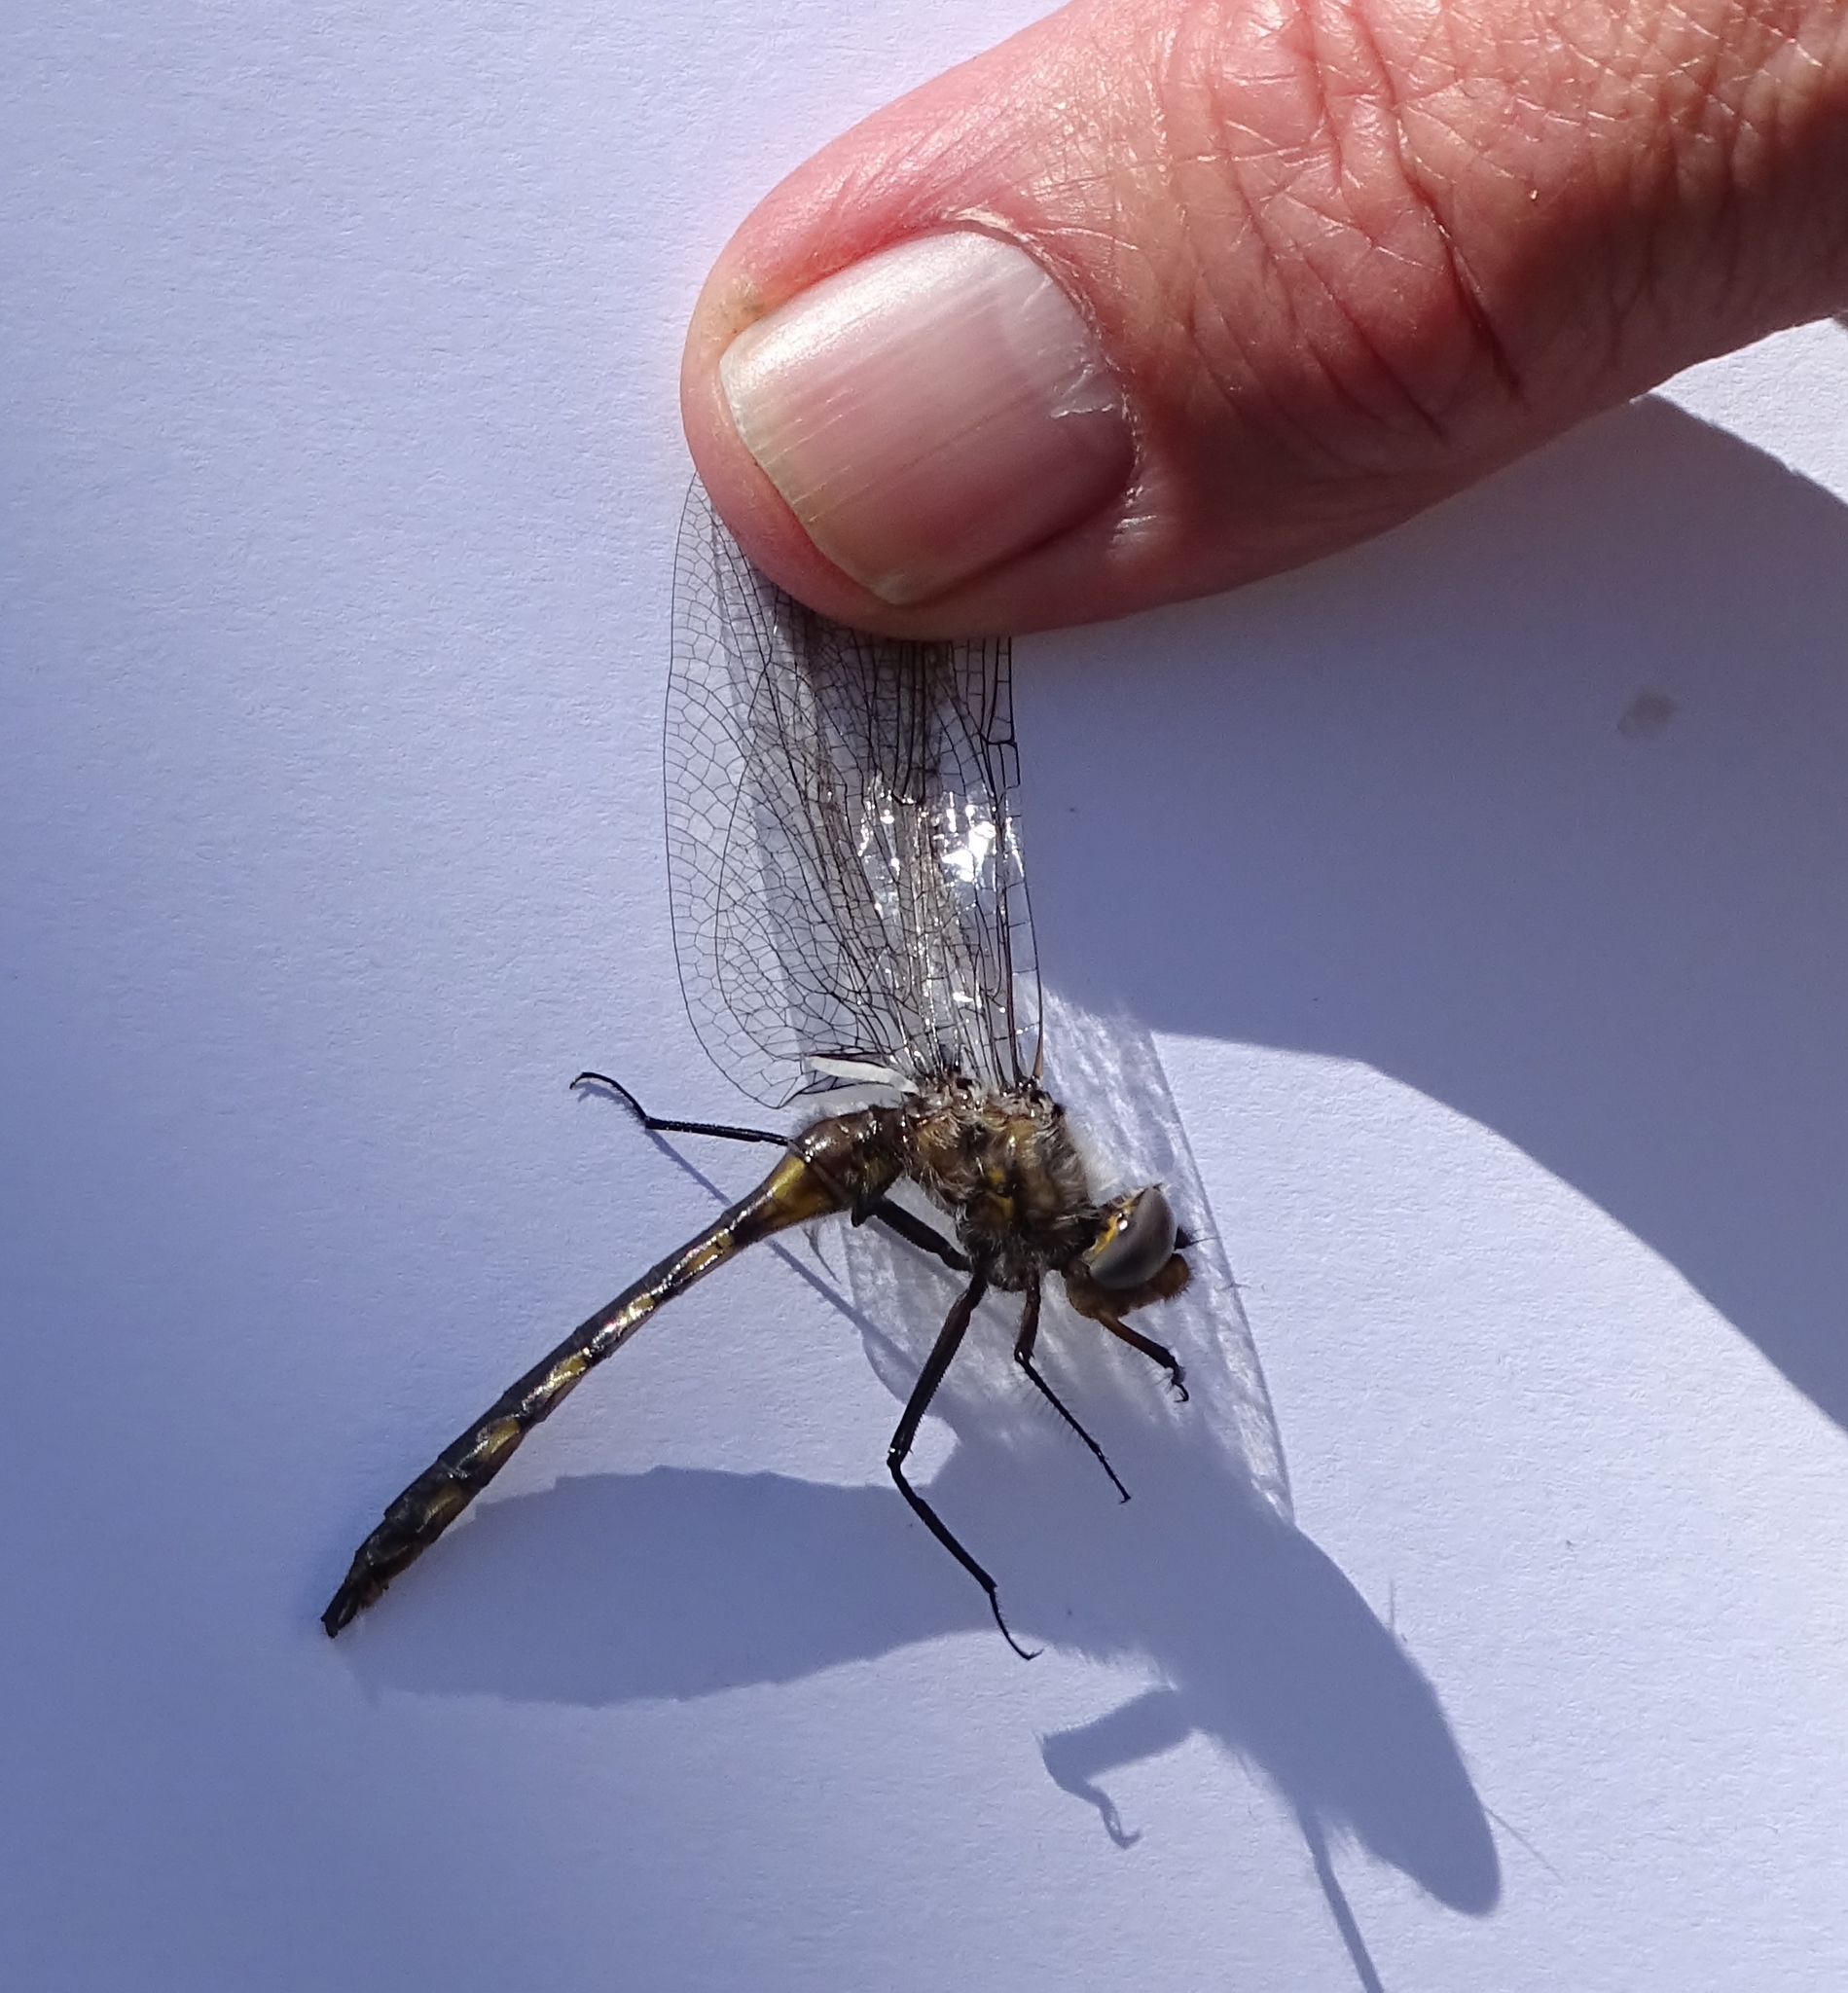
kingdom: Animalia
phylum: Arthropoda
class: Insecta
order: Odonata
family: Corduliidae
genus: Epitheca
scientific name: Epitheca canis
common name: Beaverpond baskettail
